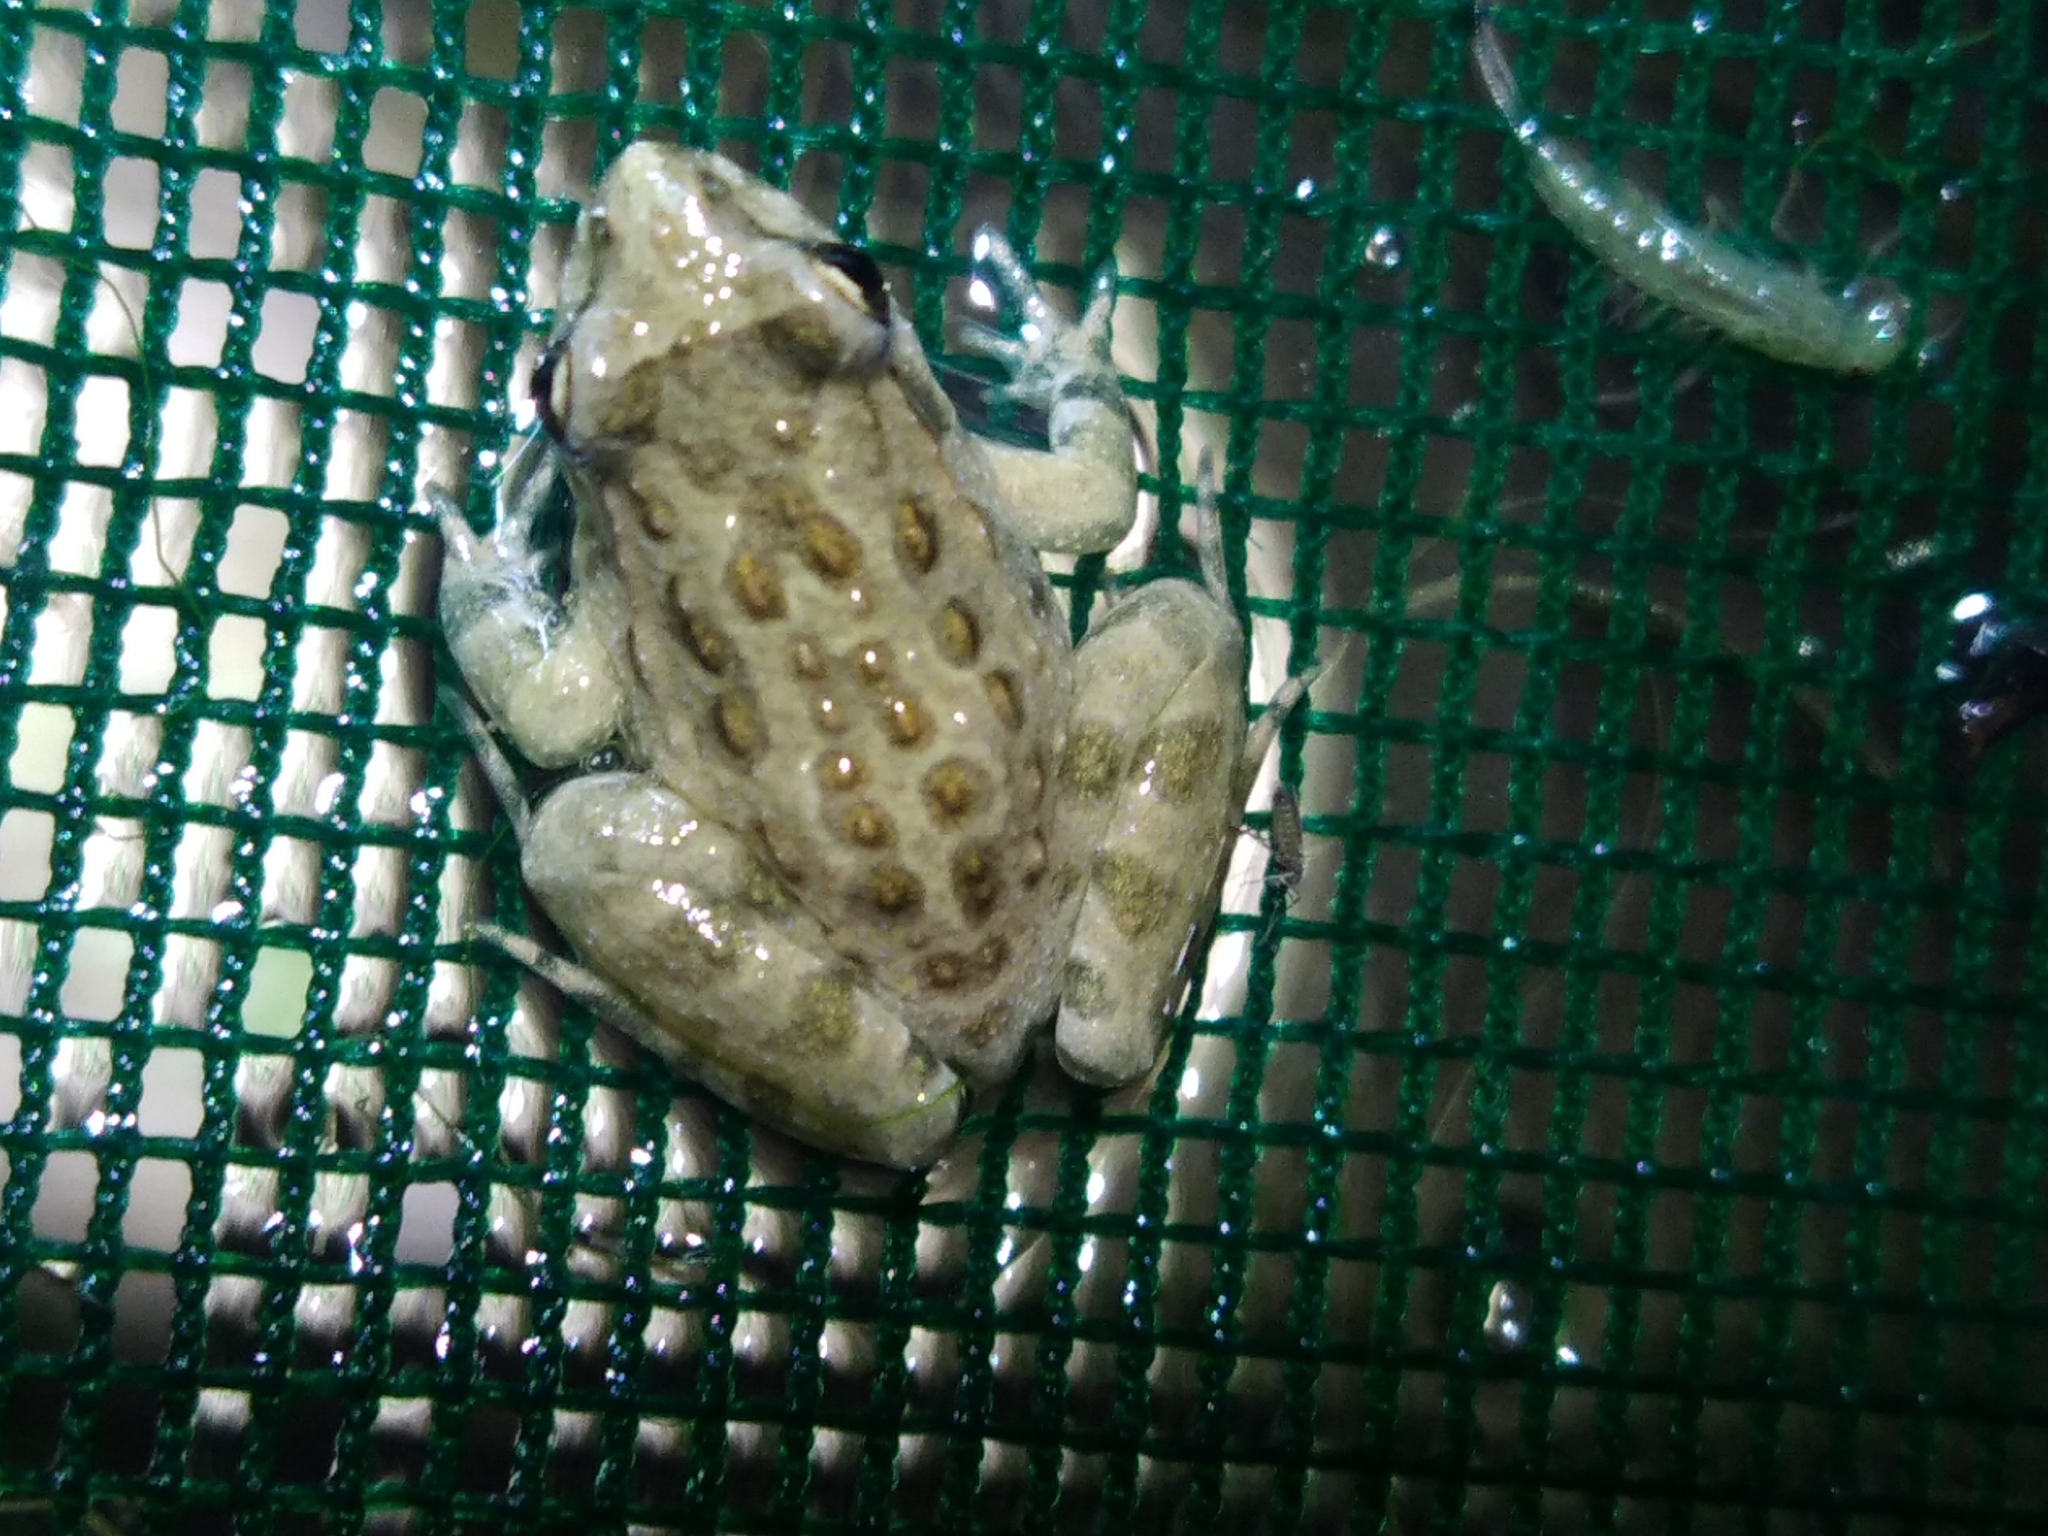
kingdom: Animalia
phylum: Chordata
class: Amphibia
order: Anura
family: Alytidae
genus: Discoglossus
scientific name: Discoglossus pictus
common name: Painted frog
